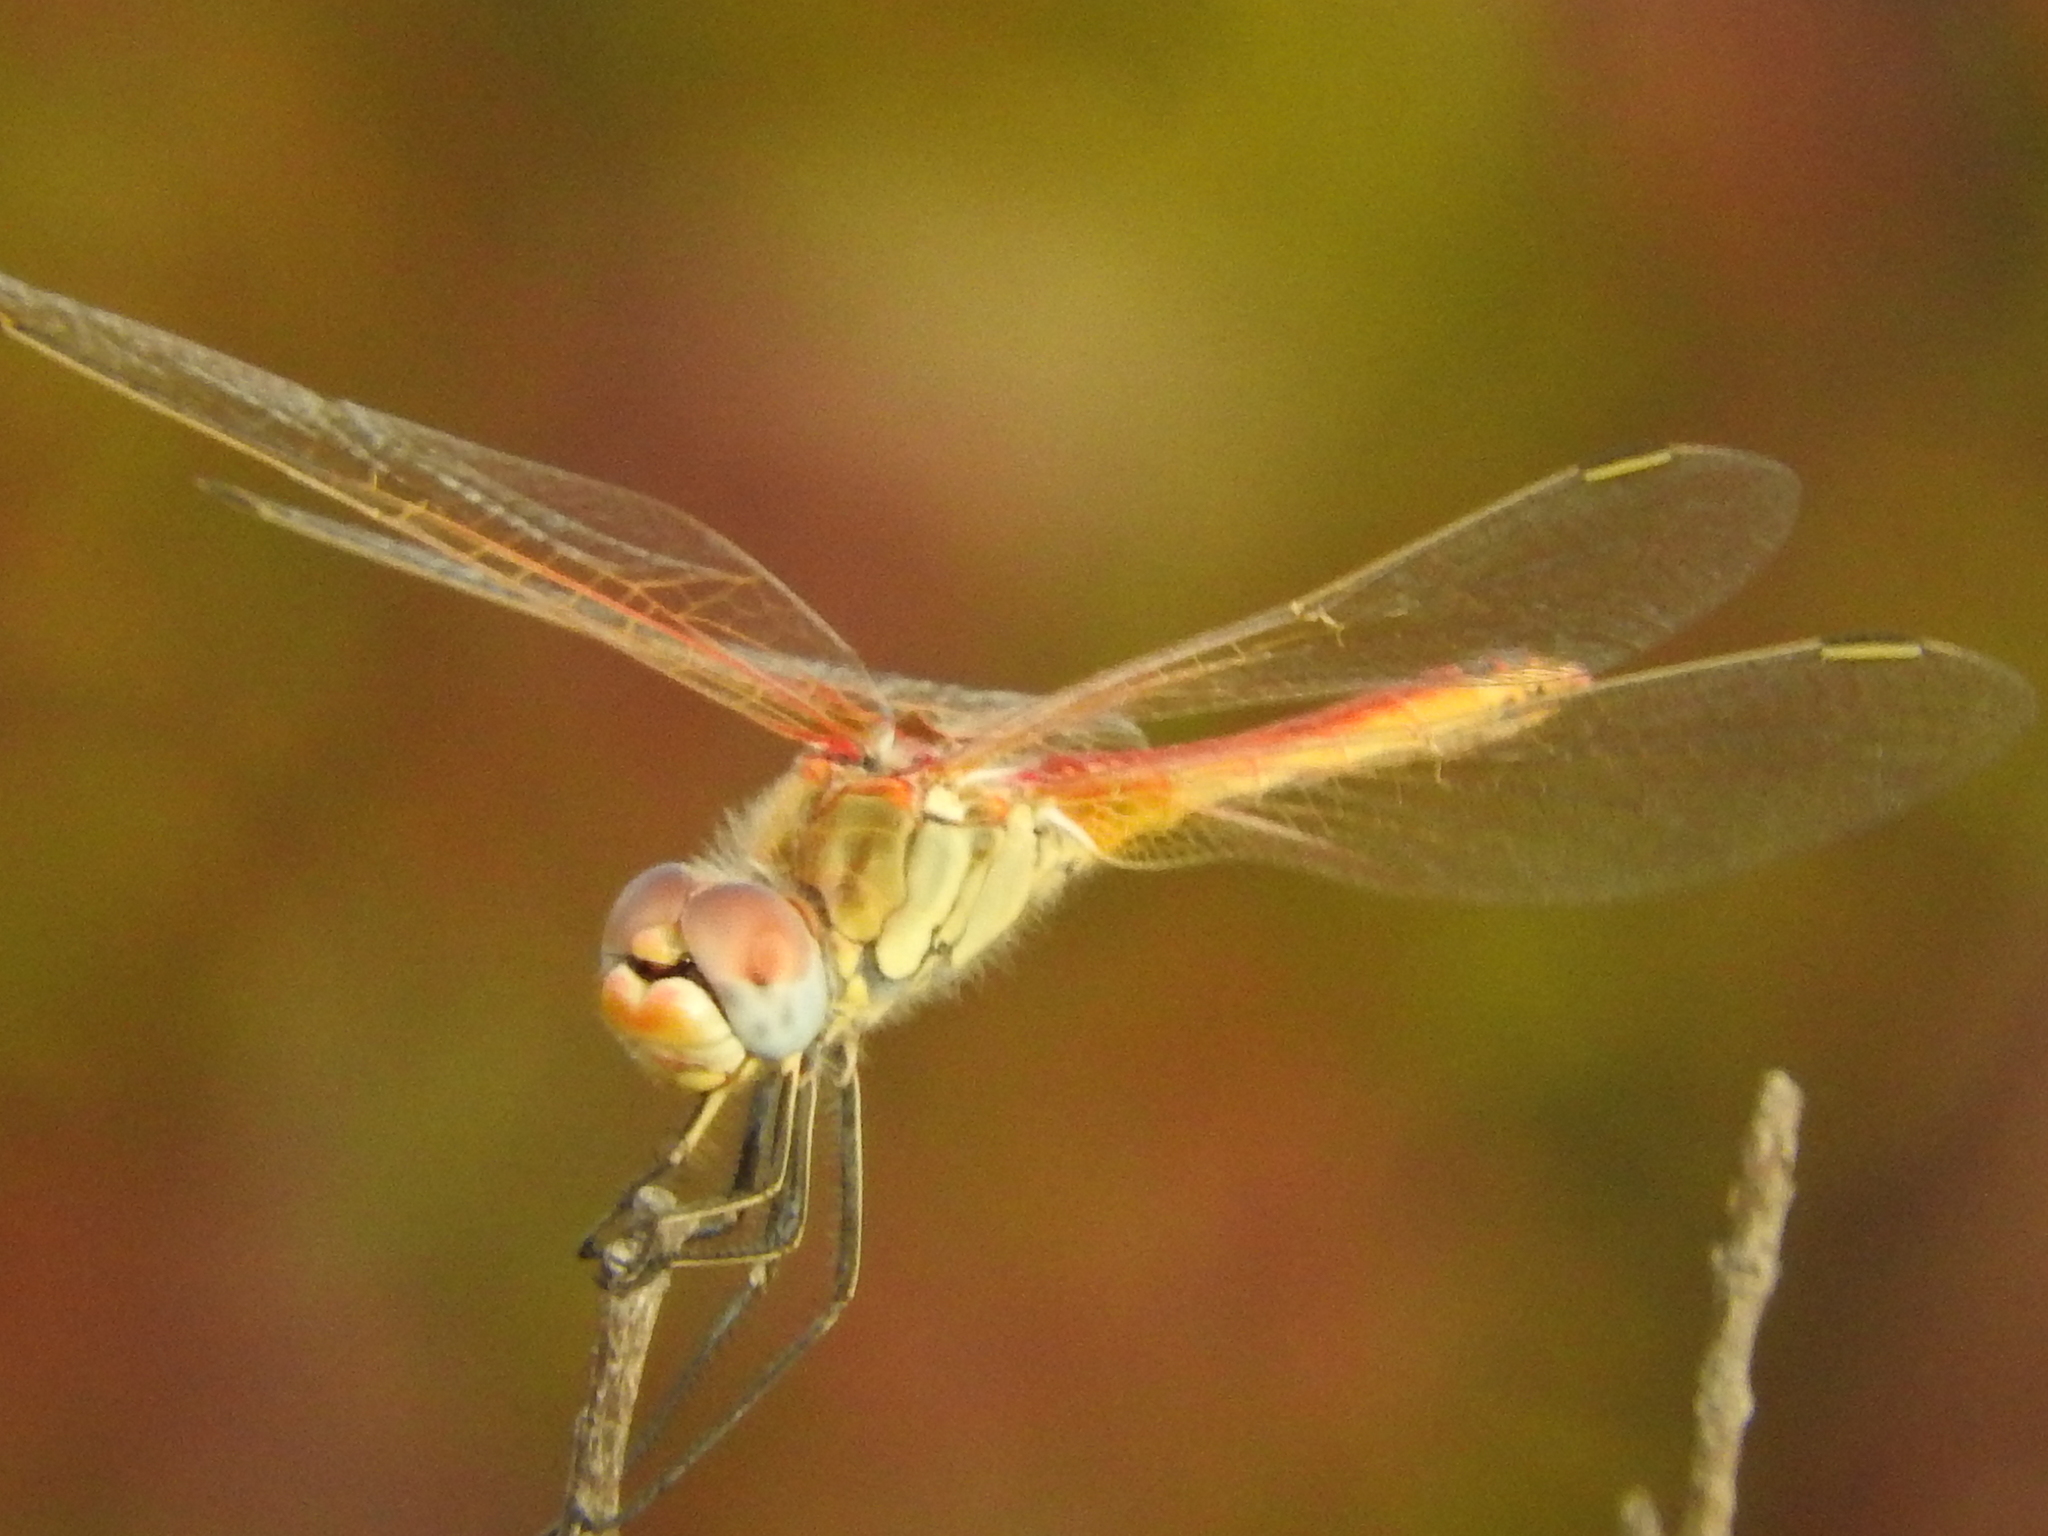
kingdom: Animalia
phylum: Arthropoda
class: Insecta
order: Odonata
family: Libellulidae
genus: Sympetrum
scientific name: Sympetrum fonscolombii
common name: Red-veined darter
